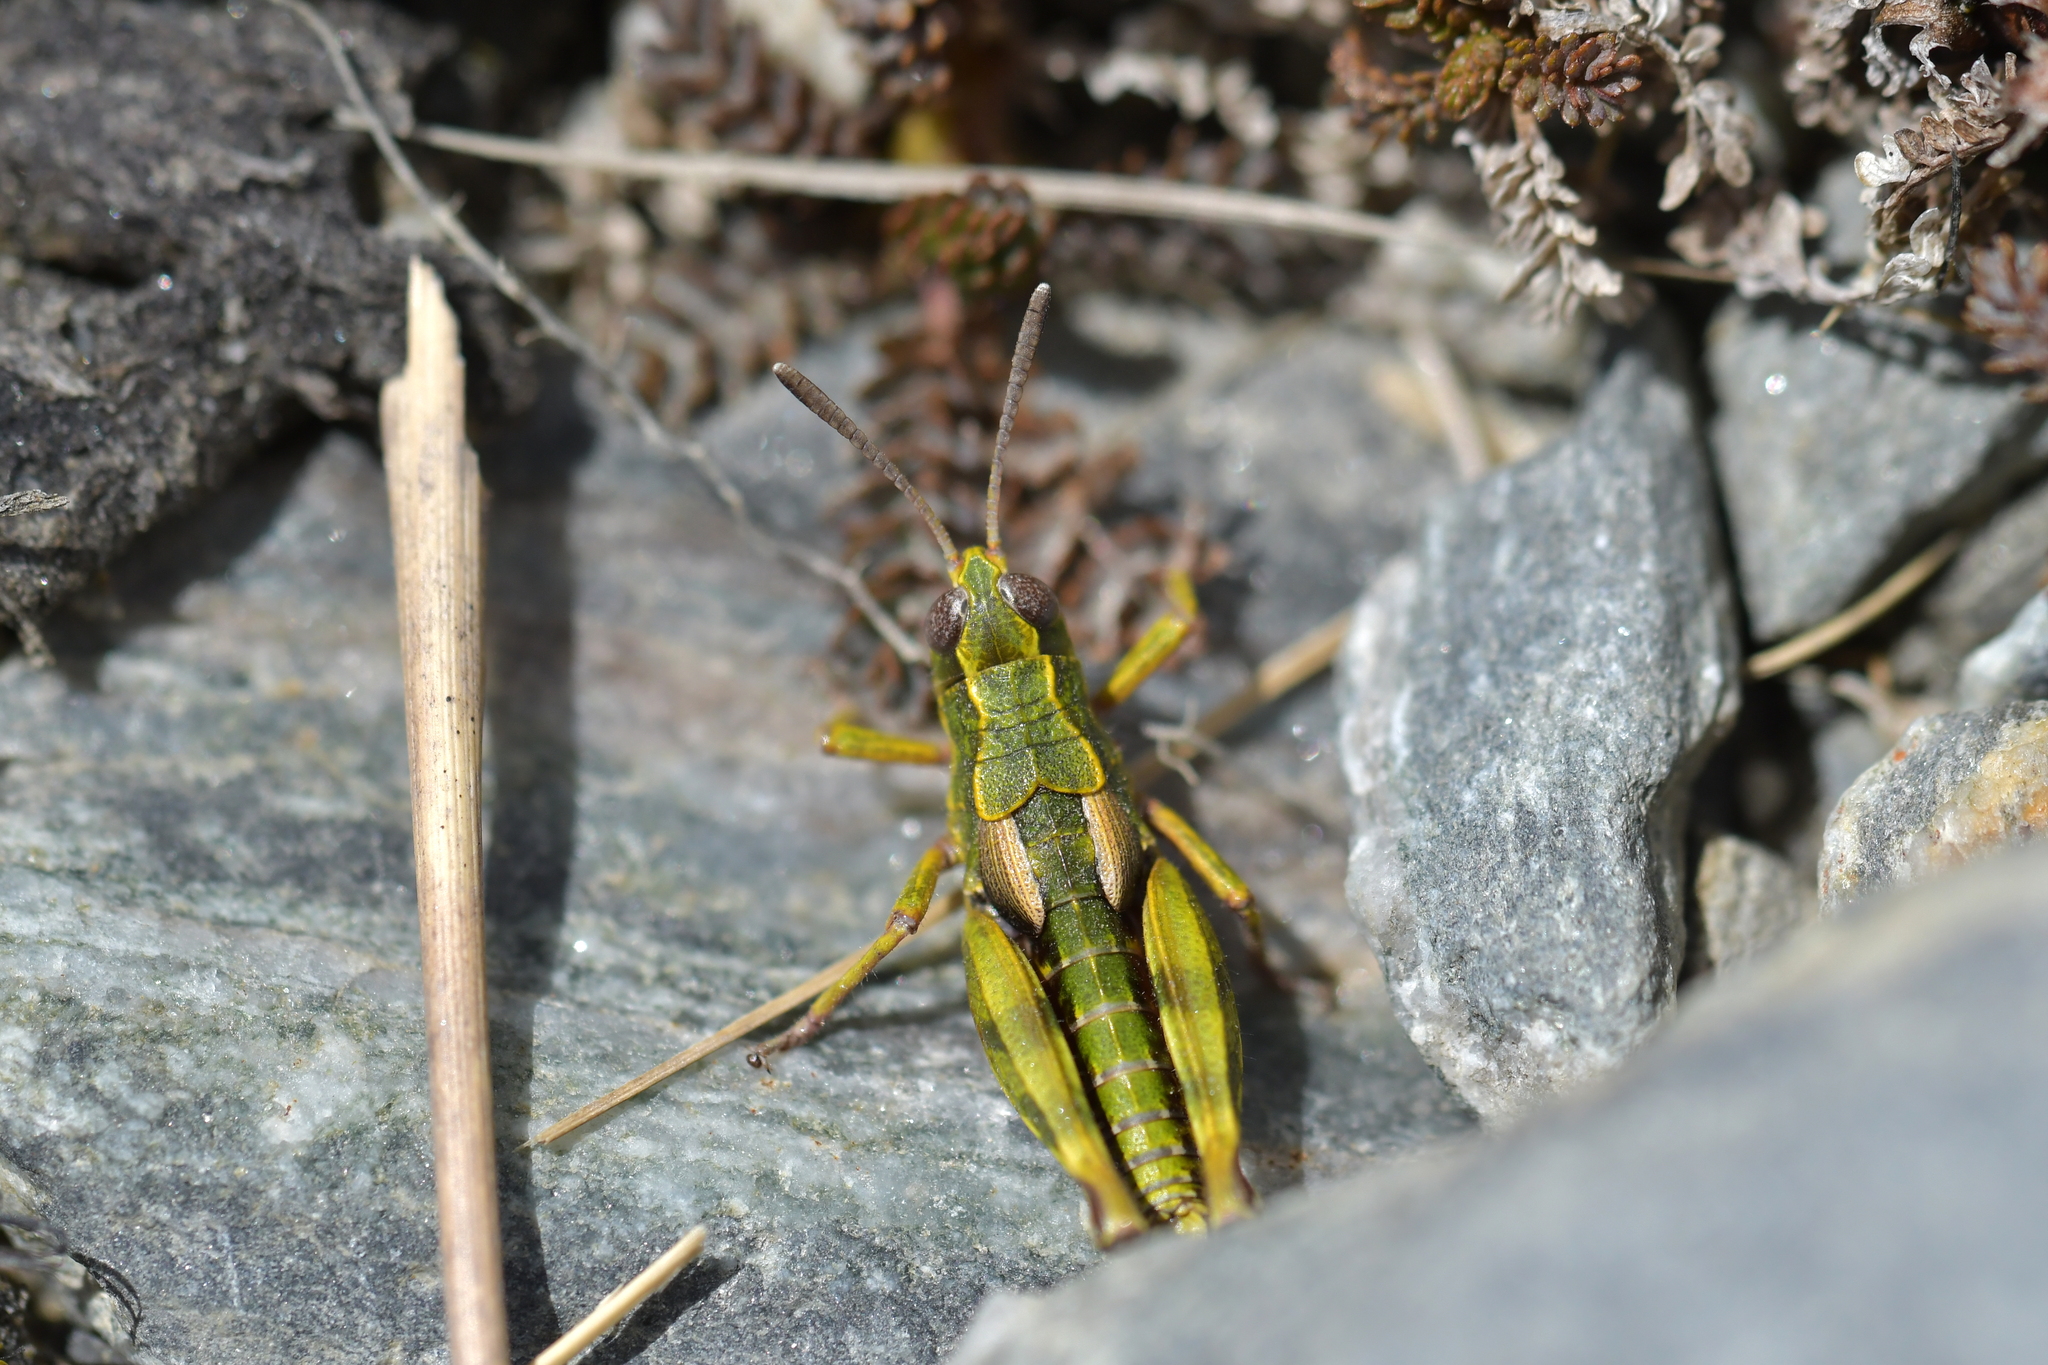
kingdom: Animalia
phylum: Arthropoda
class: Insecta
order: Orthoptera
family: Acrididae
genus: Sigaus
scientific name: Sigaus australis
